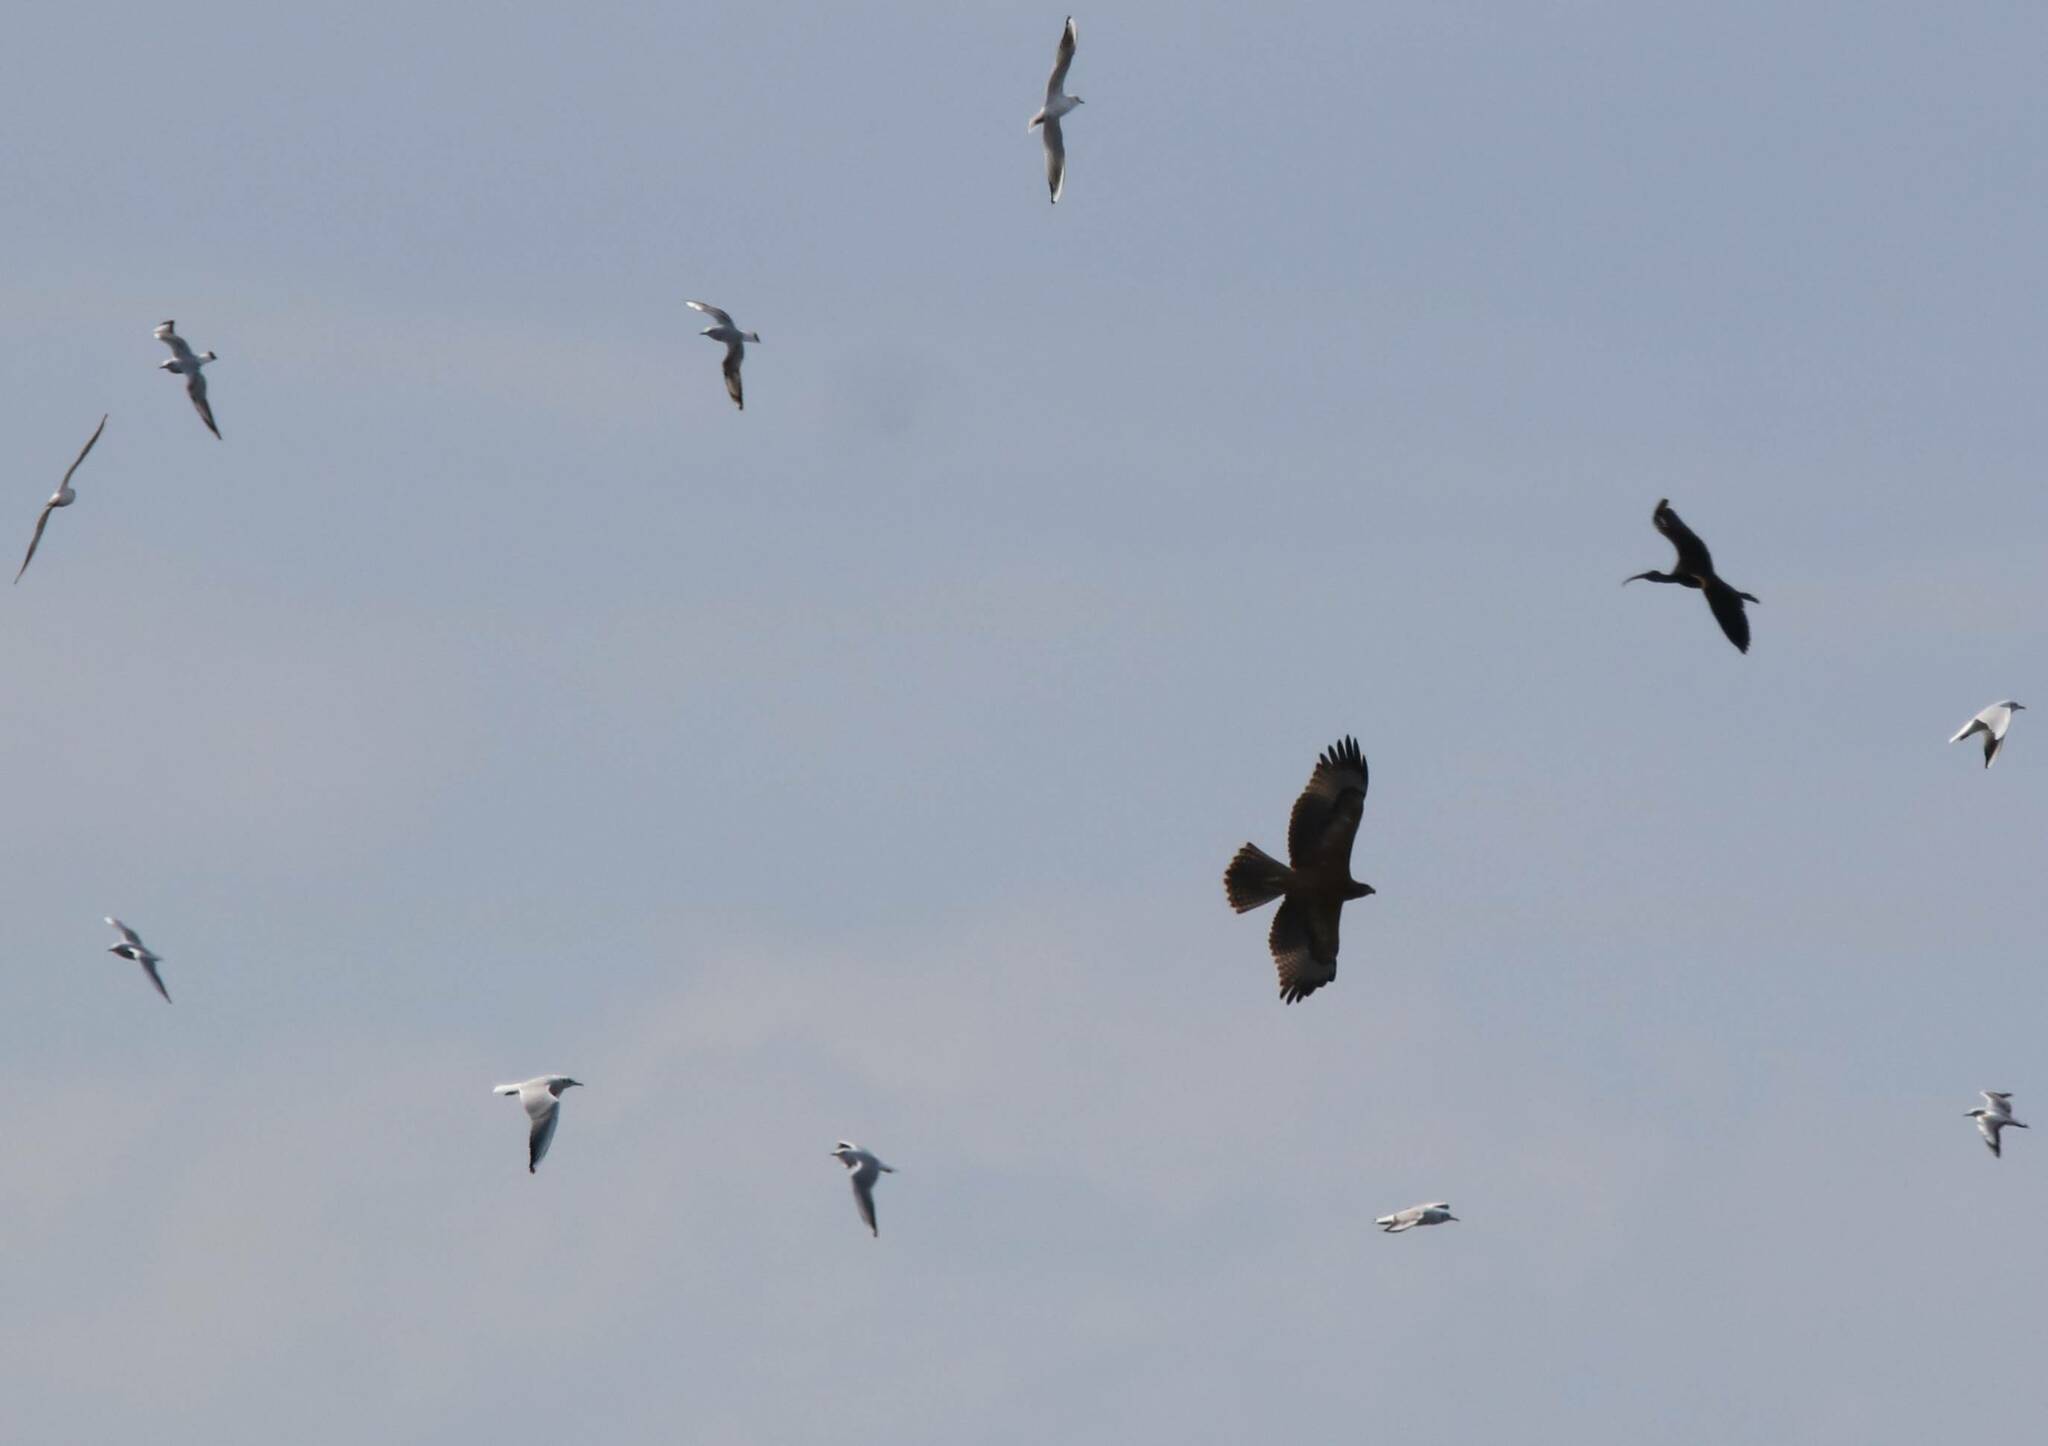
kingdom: Animalia
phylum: Chordata
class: Aves
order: Accipitriformes
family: Accipitridae
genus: Aquila
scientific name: Aquila fasciata
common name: Bonelli's eagle
